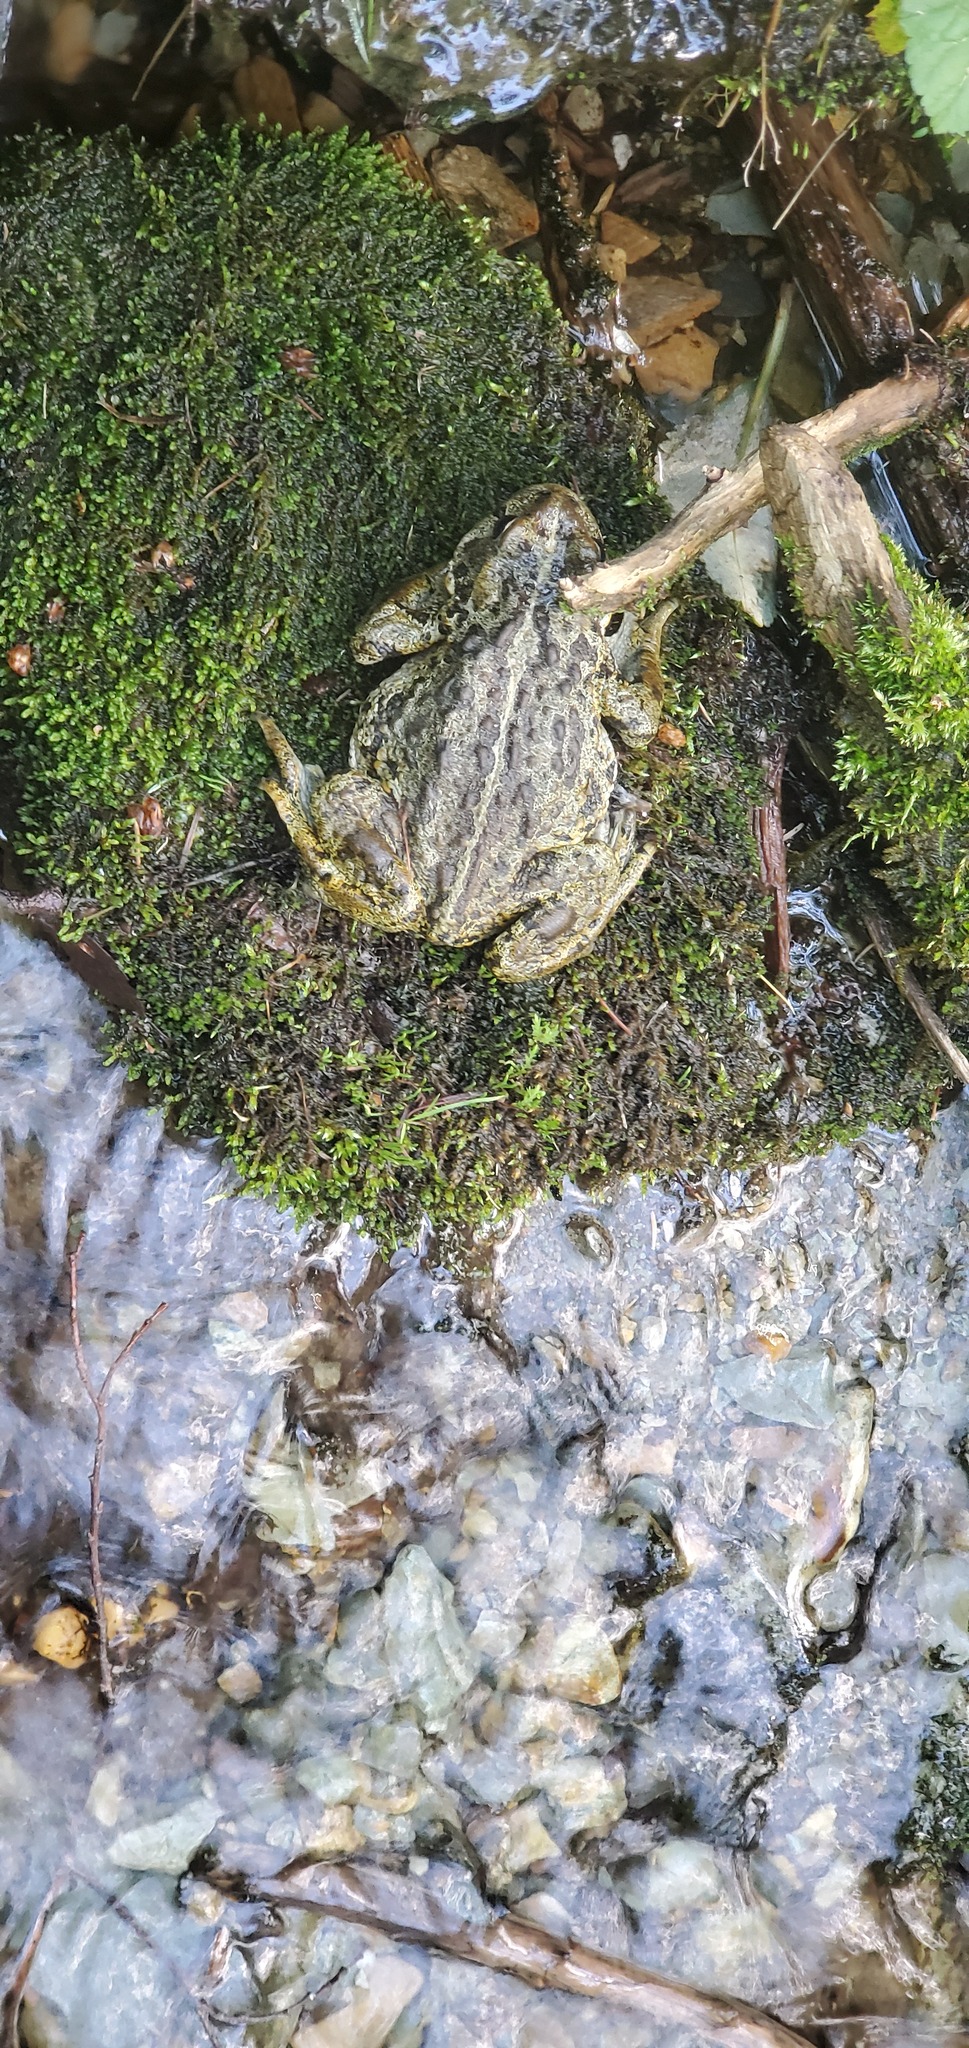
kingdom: Animalia
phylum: Chordata
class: Amphibia
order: Anura
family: Bufonidae
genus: Anaxyrus
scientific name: Anaxyrus boreas
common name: Western toad
